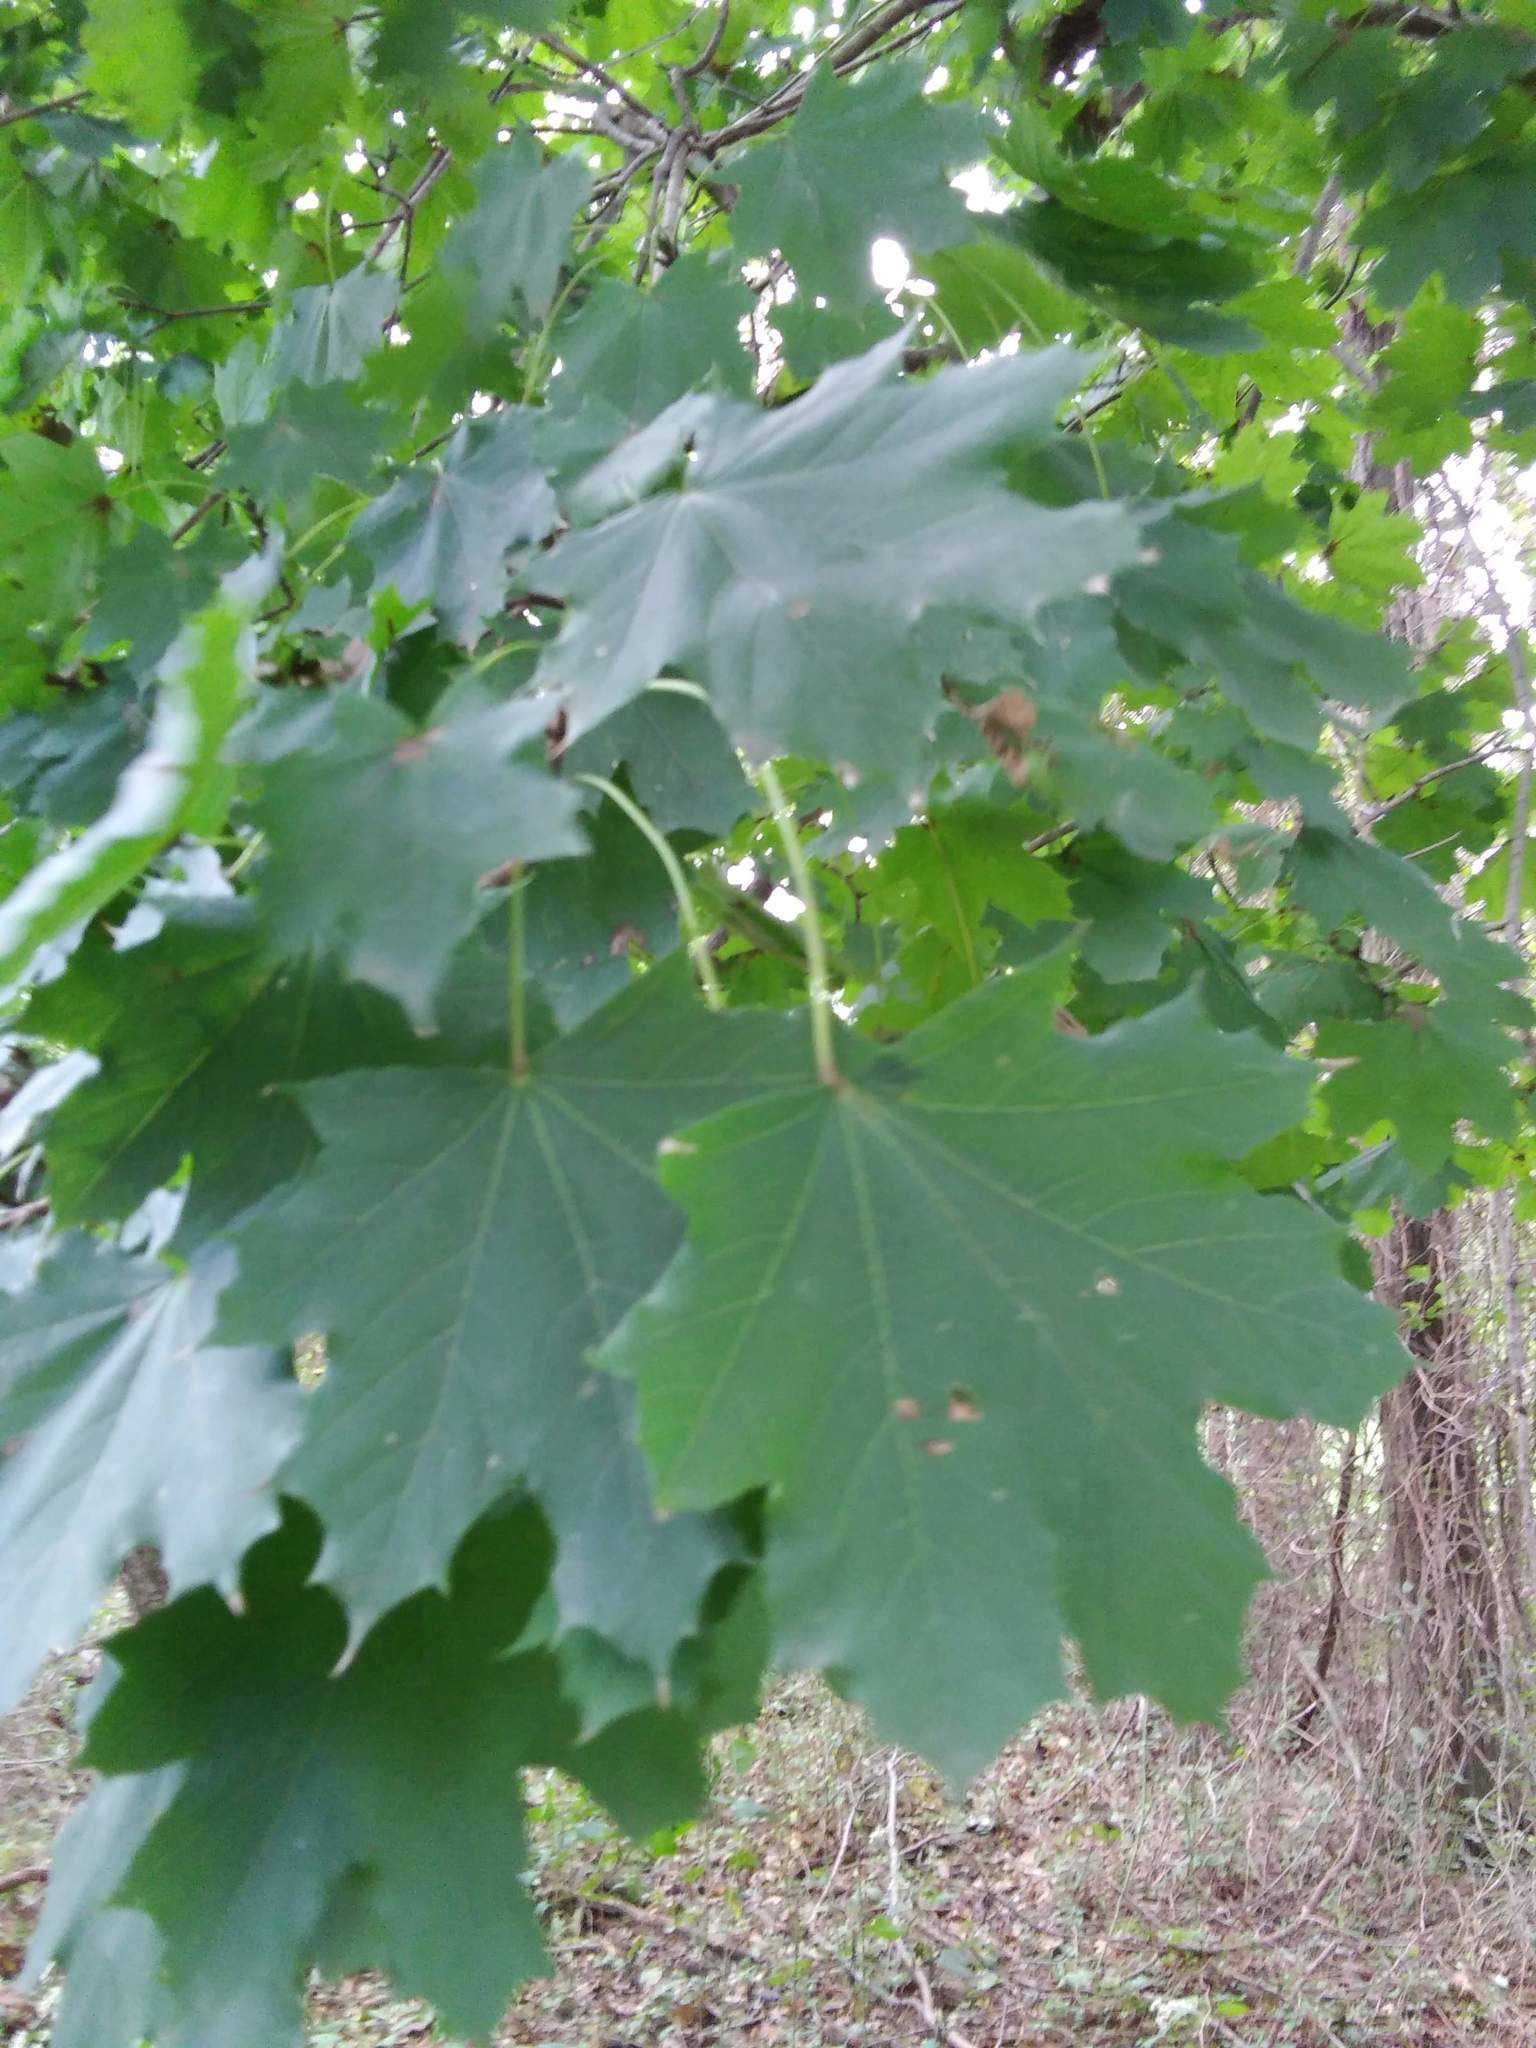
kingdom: Plantae
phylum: Tracheophyta
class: Magnoliopsida
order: Sapindales
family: Sapindaceae
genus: Acer
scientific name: Acer platanoides
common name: Norway maple
